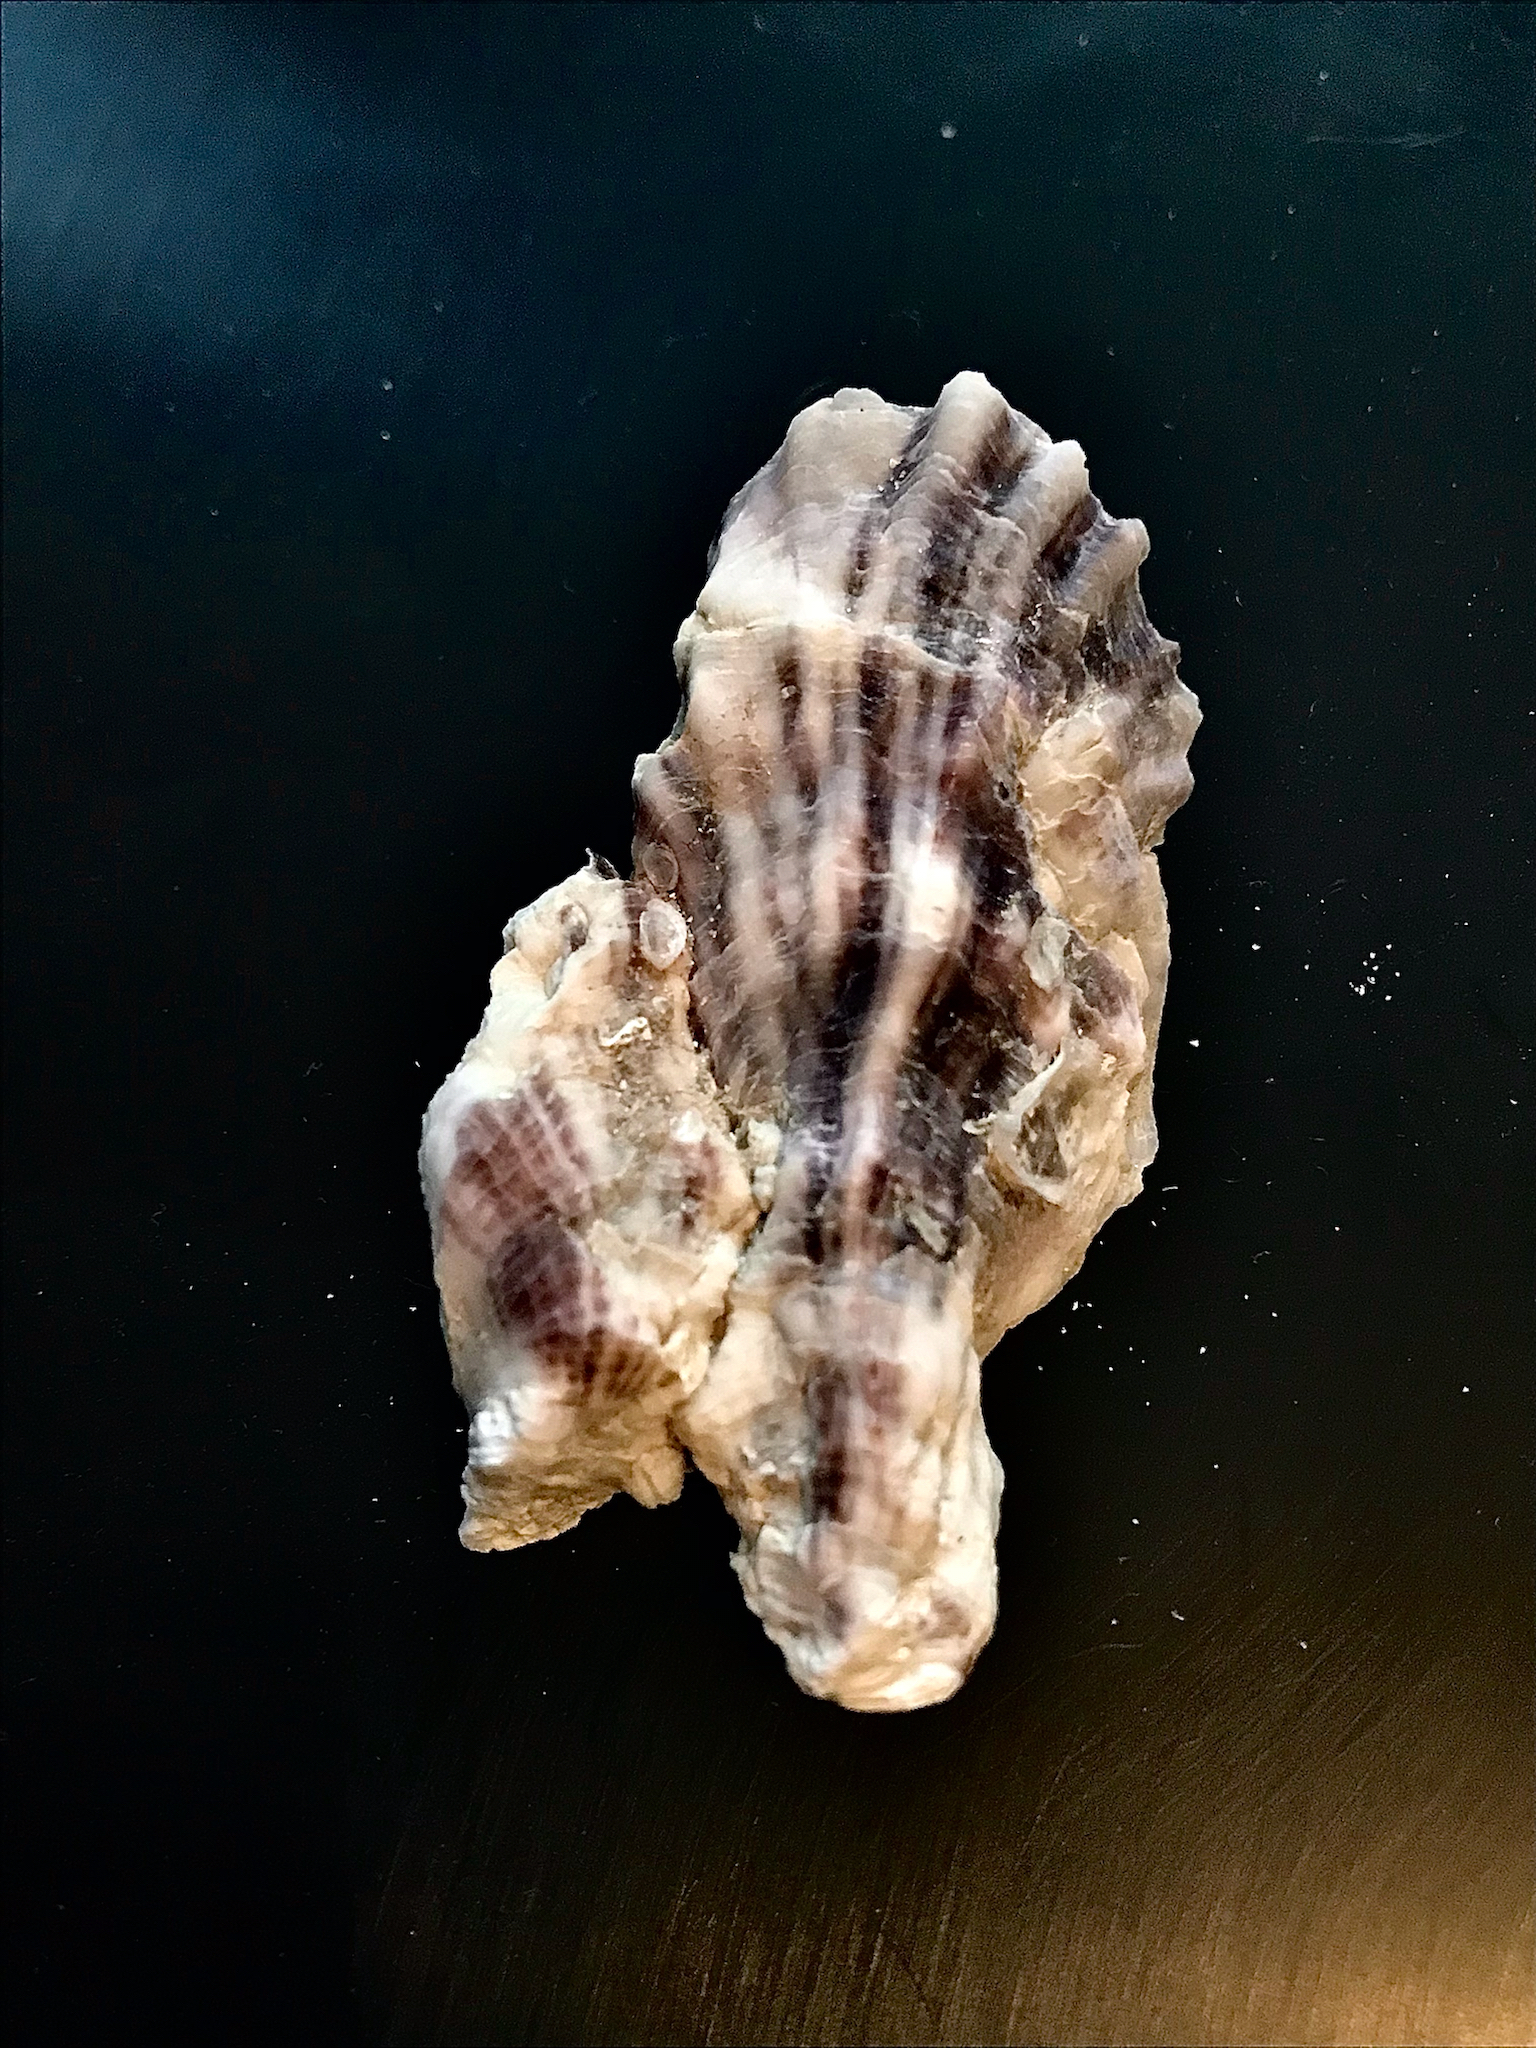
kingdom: Animalia
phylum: Mollusca
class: Bivalvia
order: Ostreida
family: Ostreidae
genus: Crassostrea
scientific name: Crassostrea virginica
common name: American oyster
